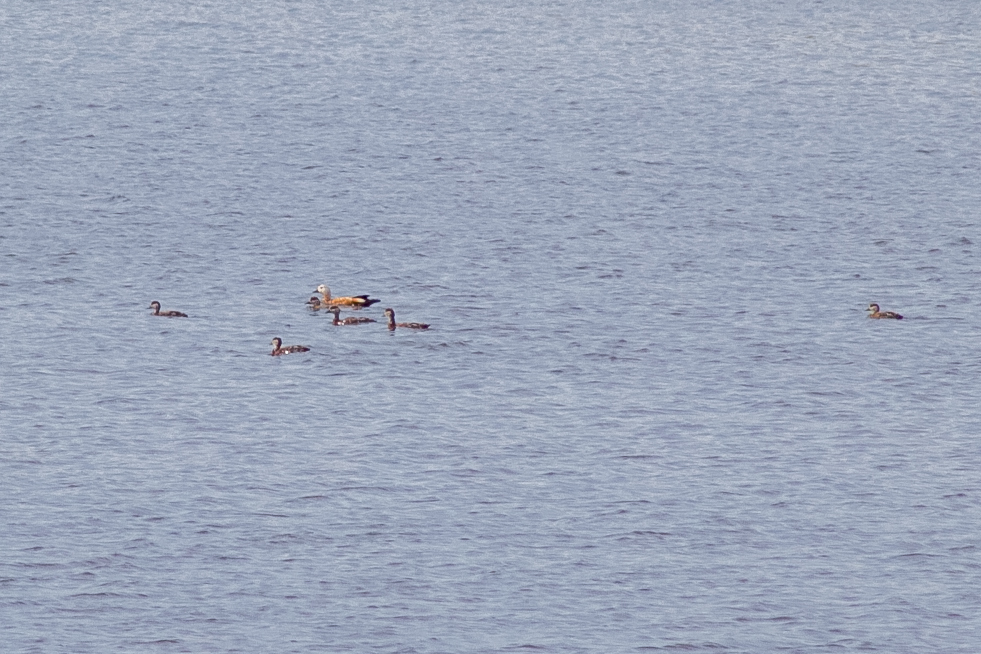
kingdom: Animalia
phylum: Chordata
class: Aves
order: Anseriformes
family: Anatidae
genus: Tadorna
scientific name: Tadorna ferruginea
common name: Ruddy shelduck
